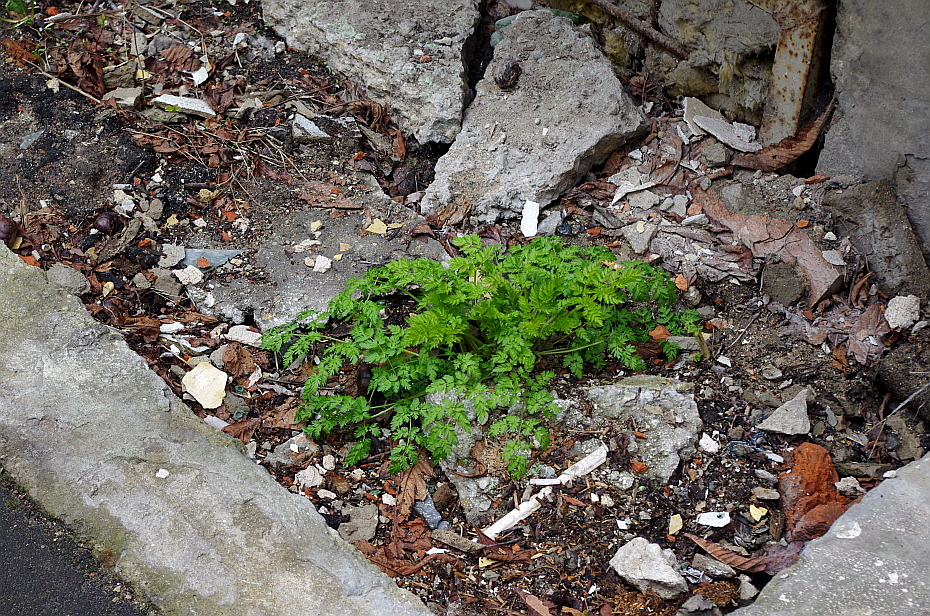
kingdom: Plantae
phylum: Tracheophyta
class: Magnoliopsida
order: Apiales
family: Apiaceae
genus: Anthriscus
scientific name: Anthriscus sylvestris
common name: Cow parsley
